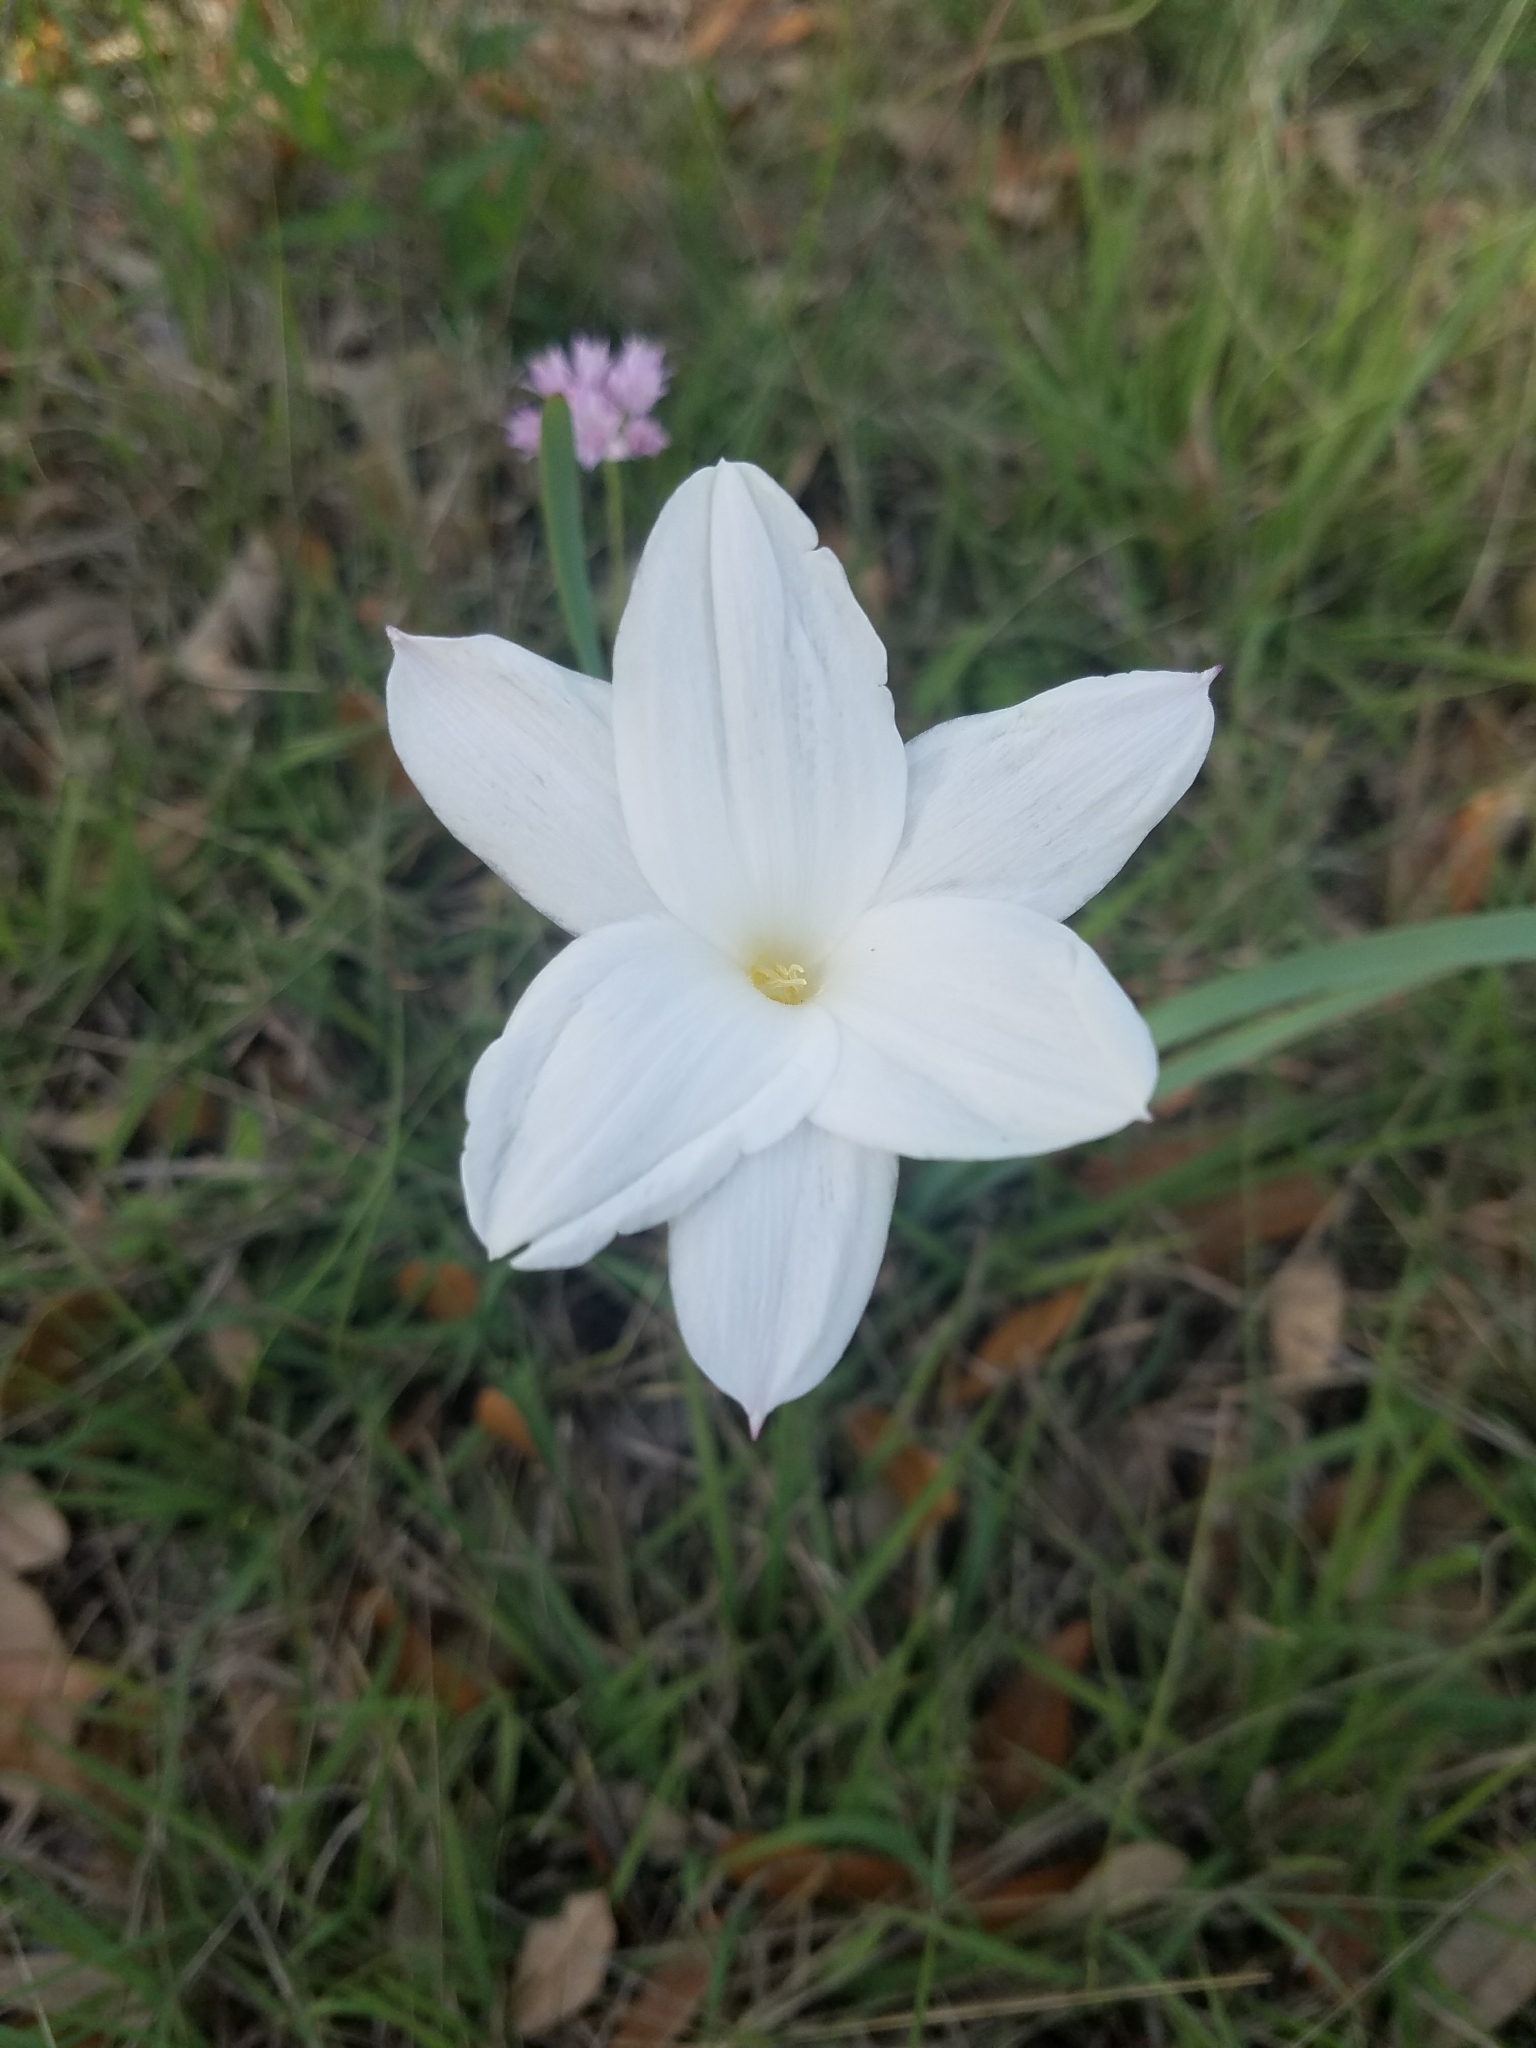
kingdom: Plantae
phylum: Tracheophyta
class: Liliopsida
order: Asparagales
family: Amaryllidaceae
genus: Zephyranthes
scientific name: Zephyranthes drummondii
